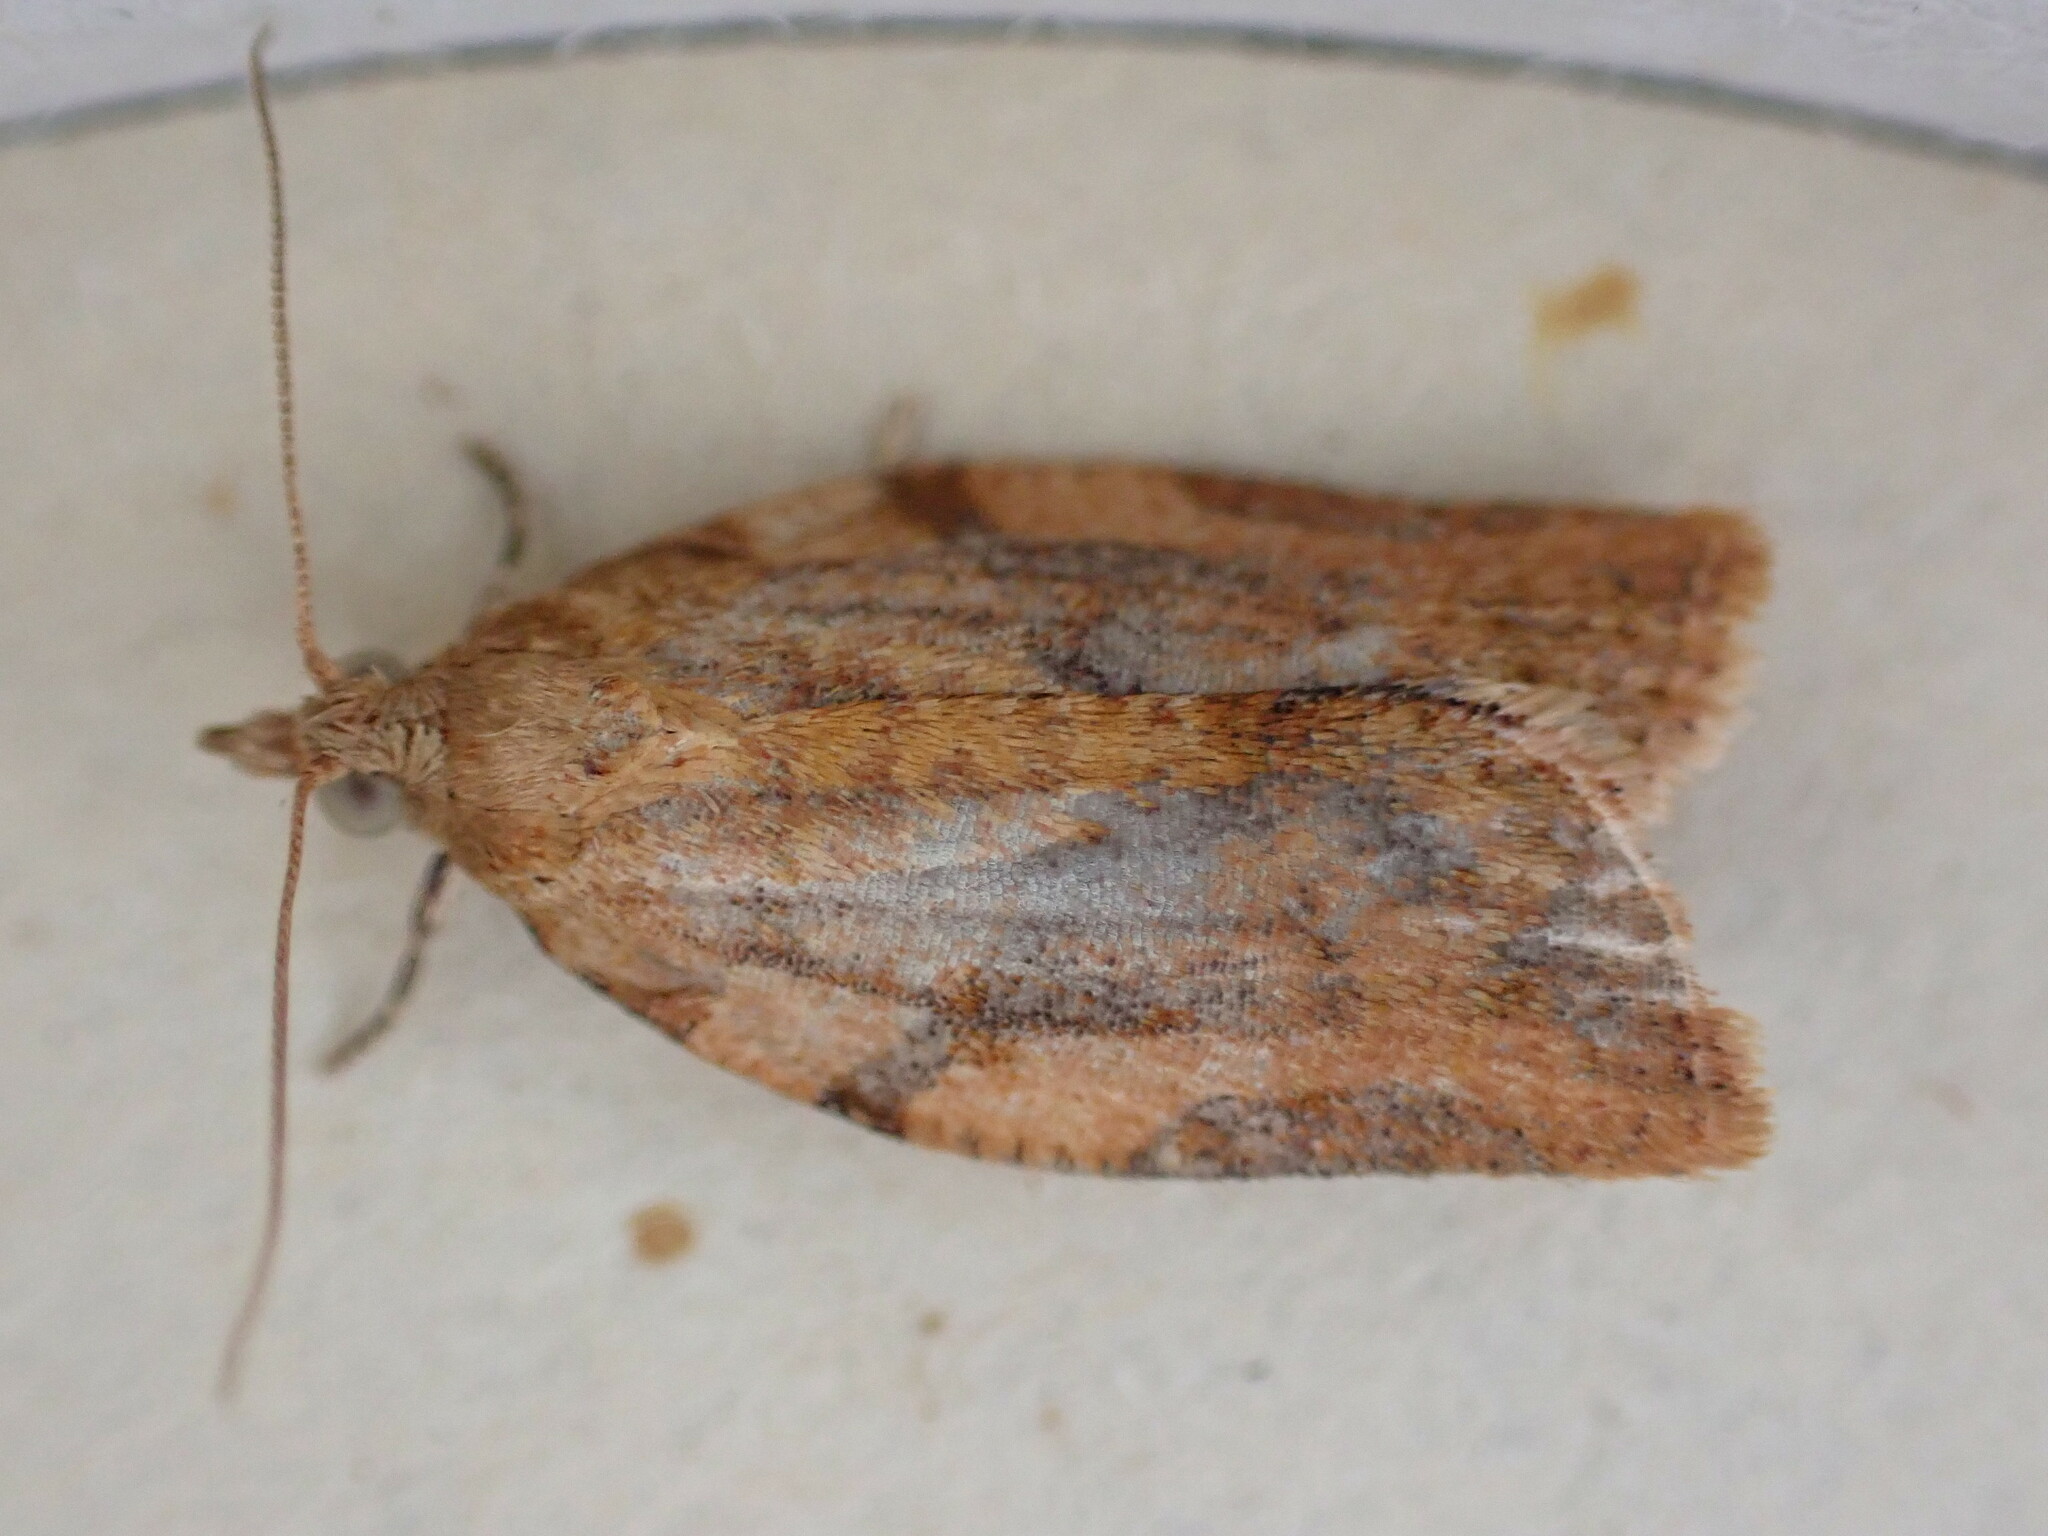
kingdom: Animalia
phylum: Arthropoda
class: Insecta
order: Lepidoptera
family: Tortricidae
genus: Epiphyas
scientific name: Epiphyas postvittana
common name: Light brown apple moth
